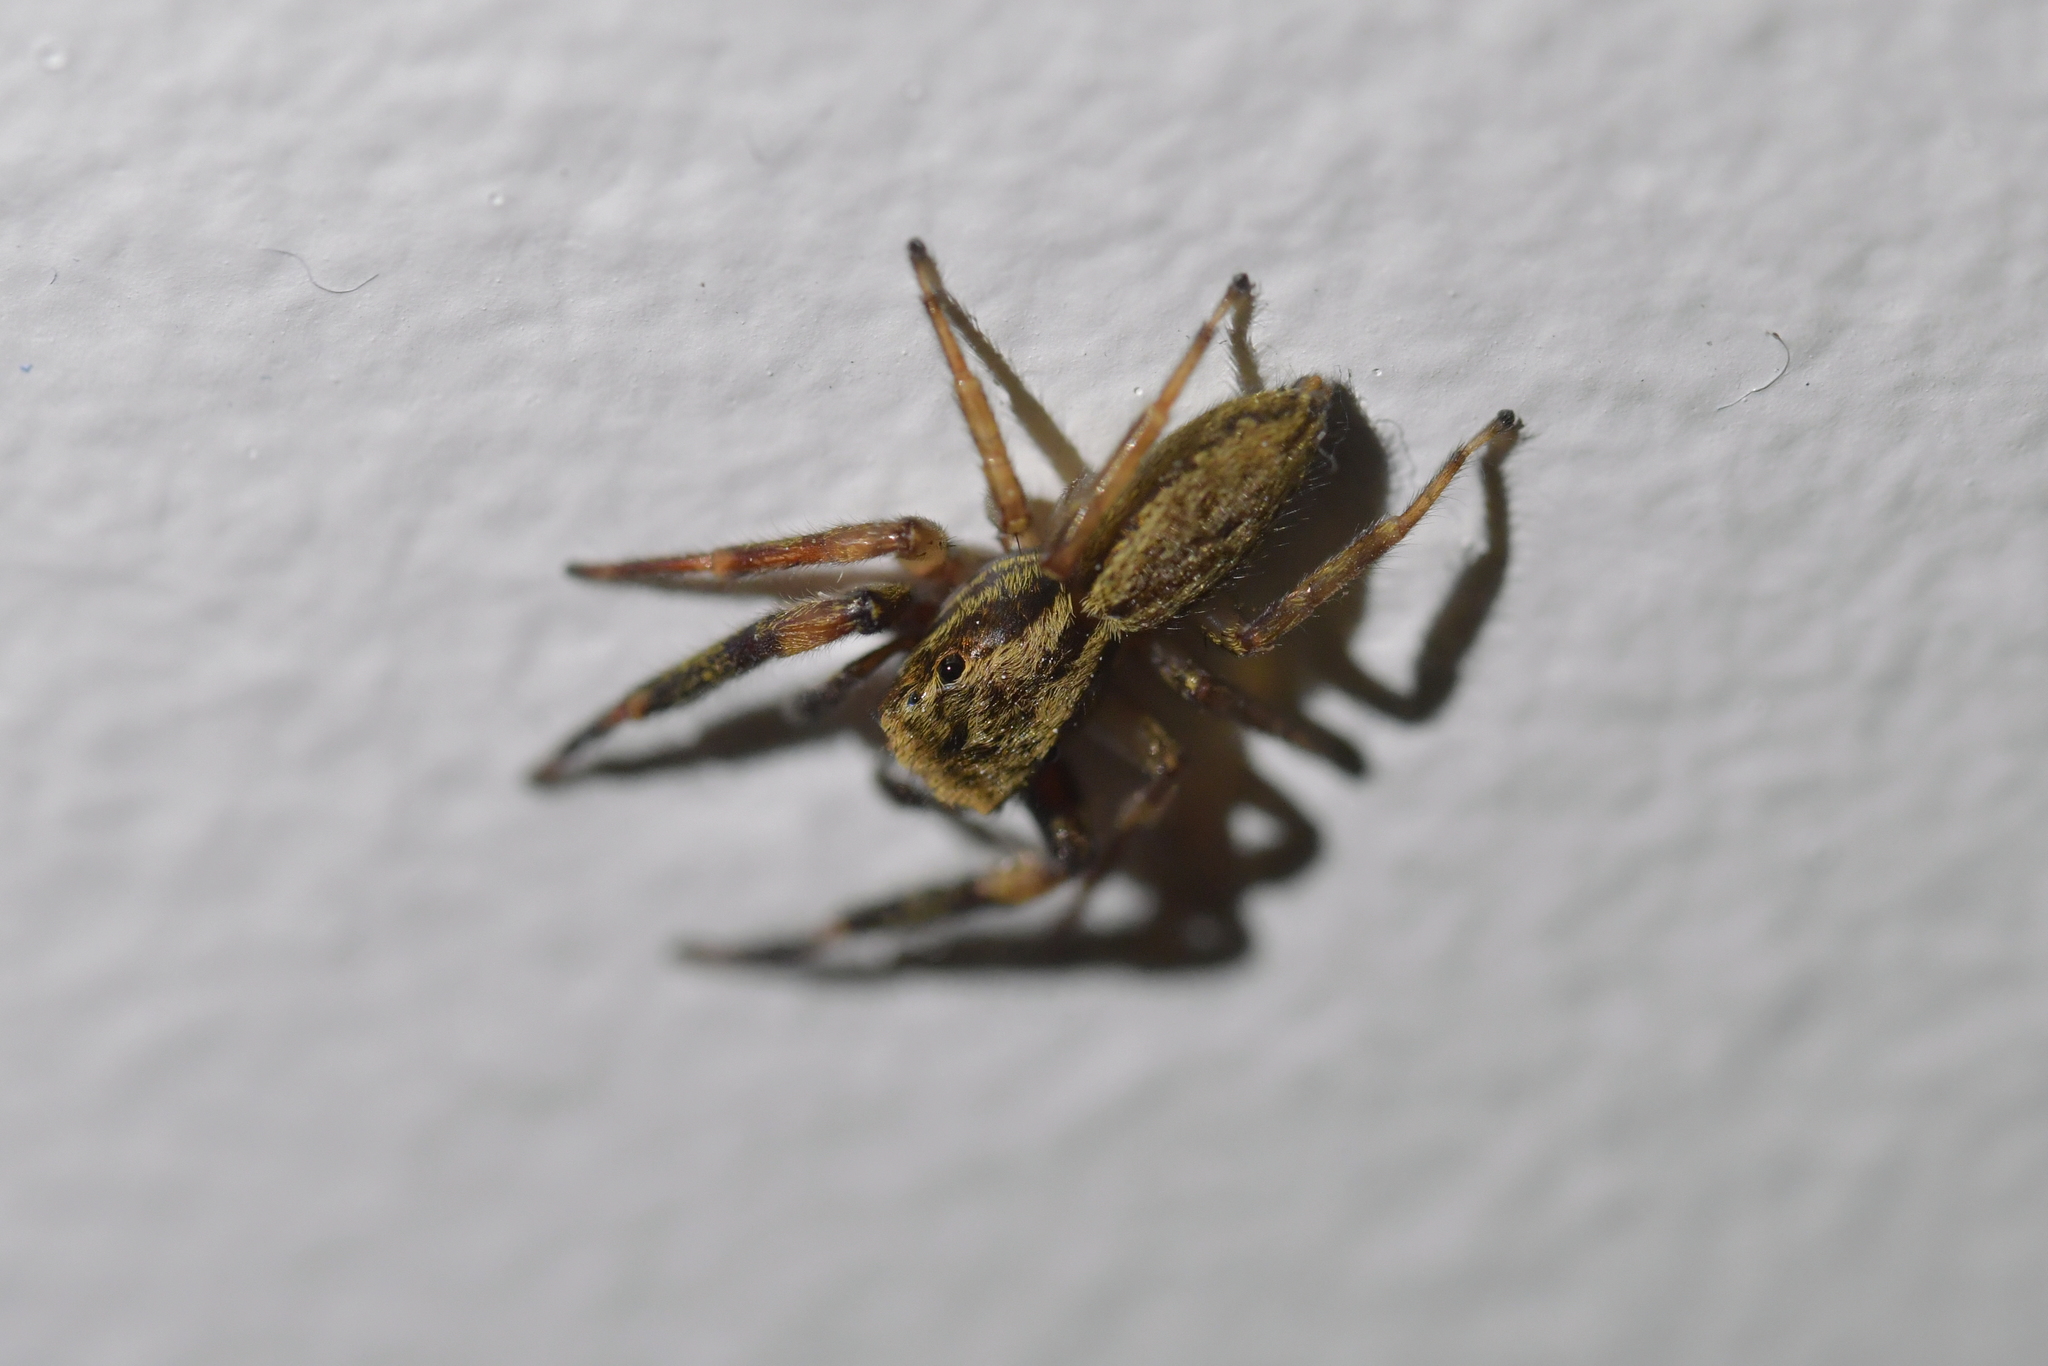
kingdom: Animalia
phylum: Arthropoda
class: Arachnida
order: Araneae
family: Salticidae
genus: Trite
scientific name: Trite auricoma
